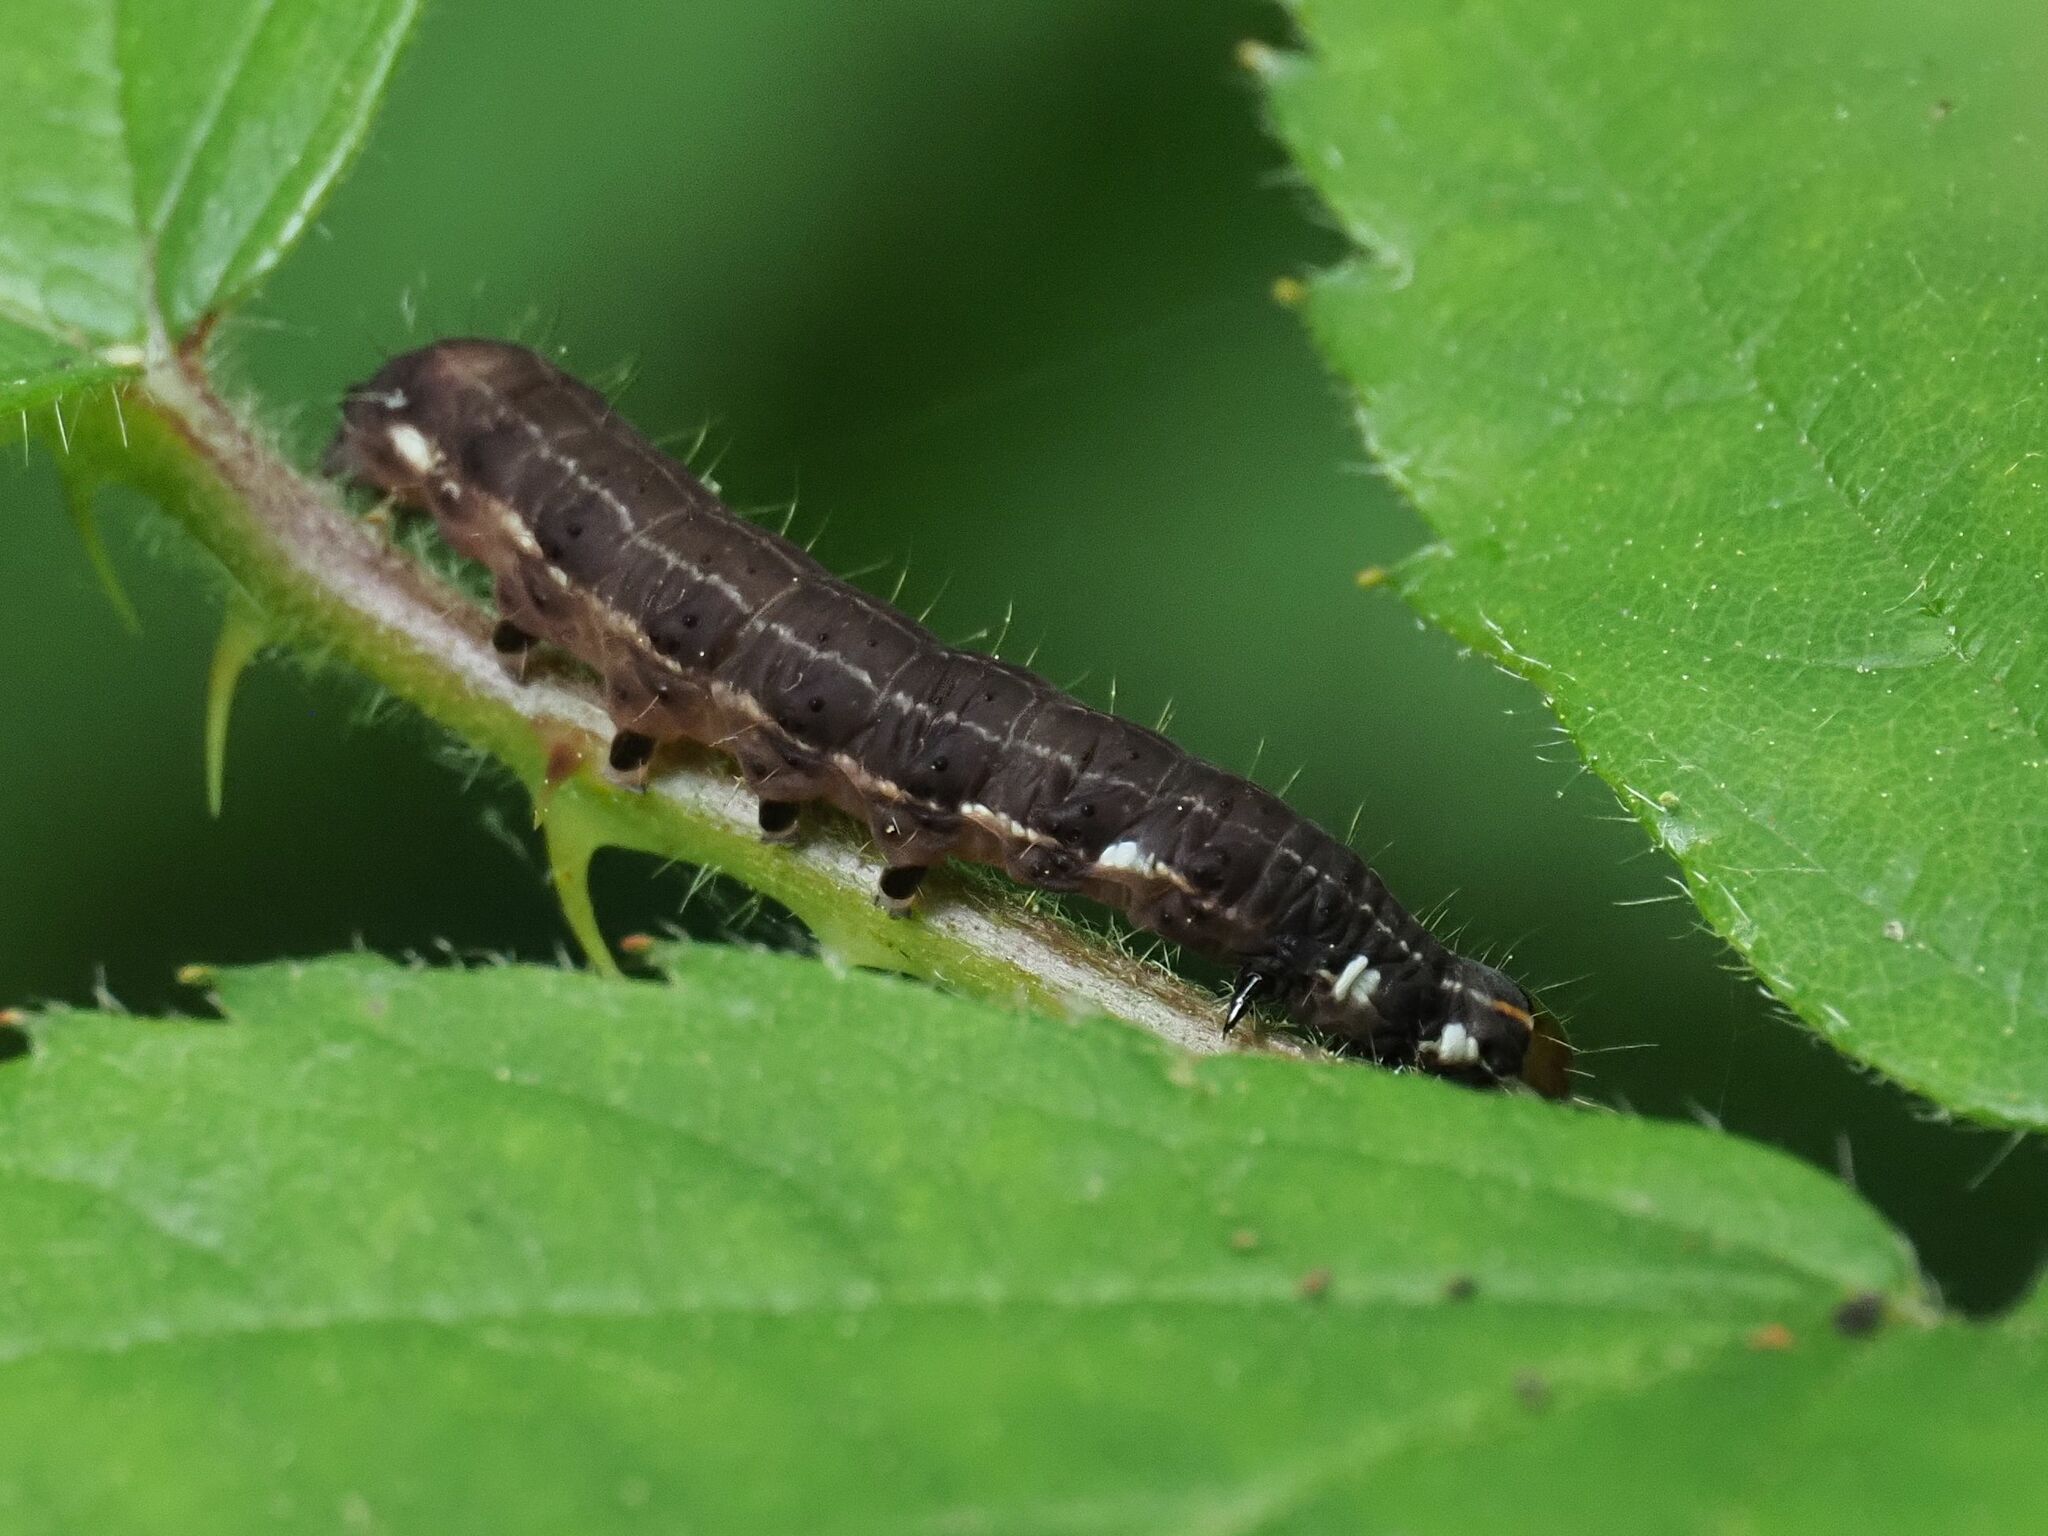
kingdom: Animalia
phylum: Arthropoda
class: Insecta
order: Lepidoptera
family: Noctuidae
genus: Eupsilia
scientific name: Eupsilia transversa
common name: Satellite
